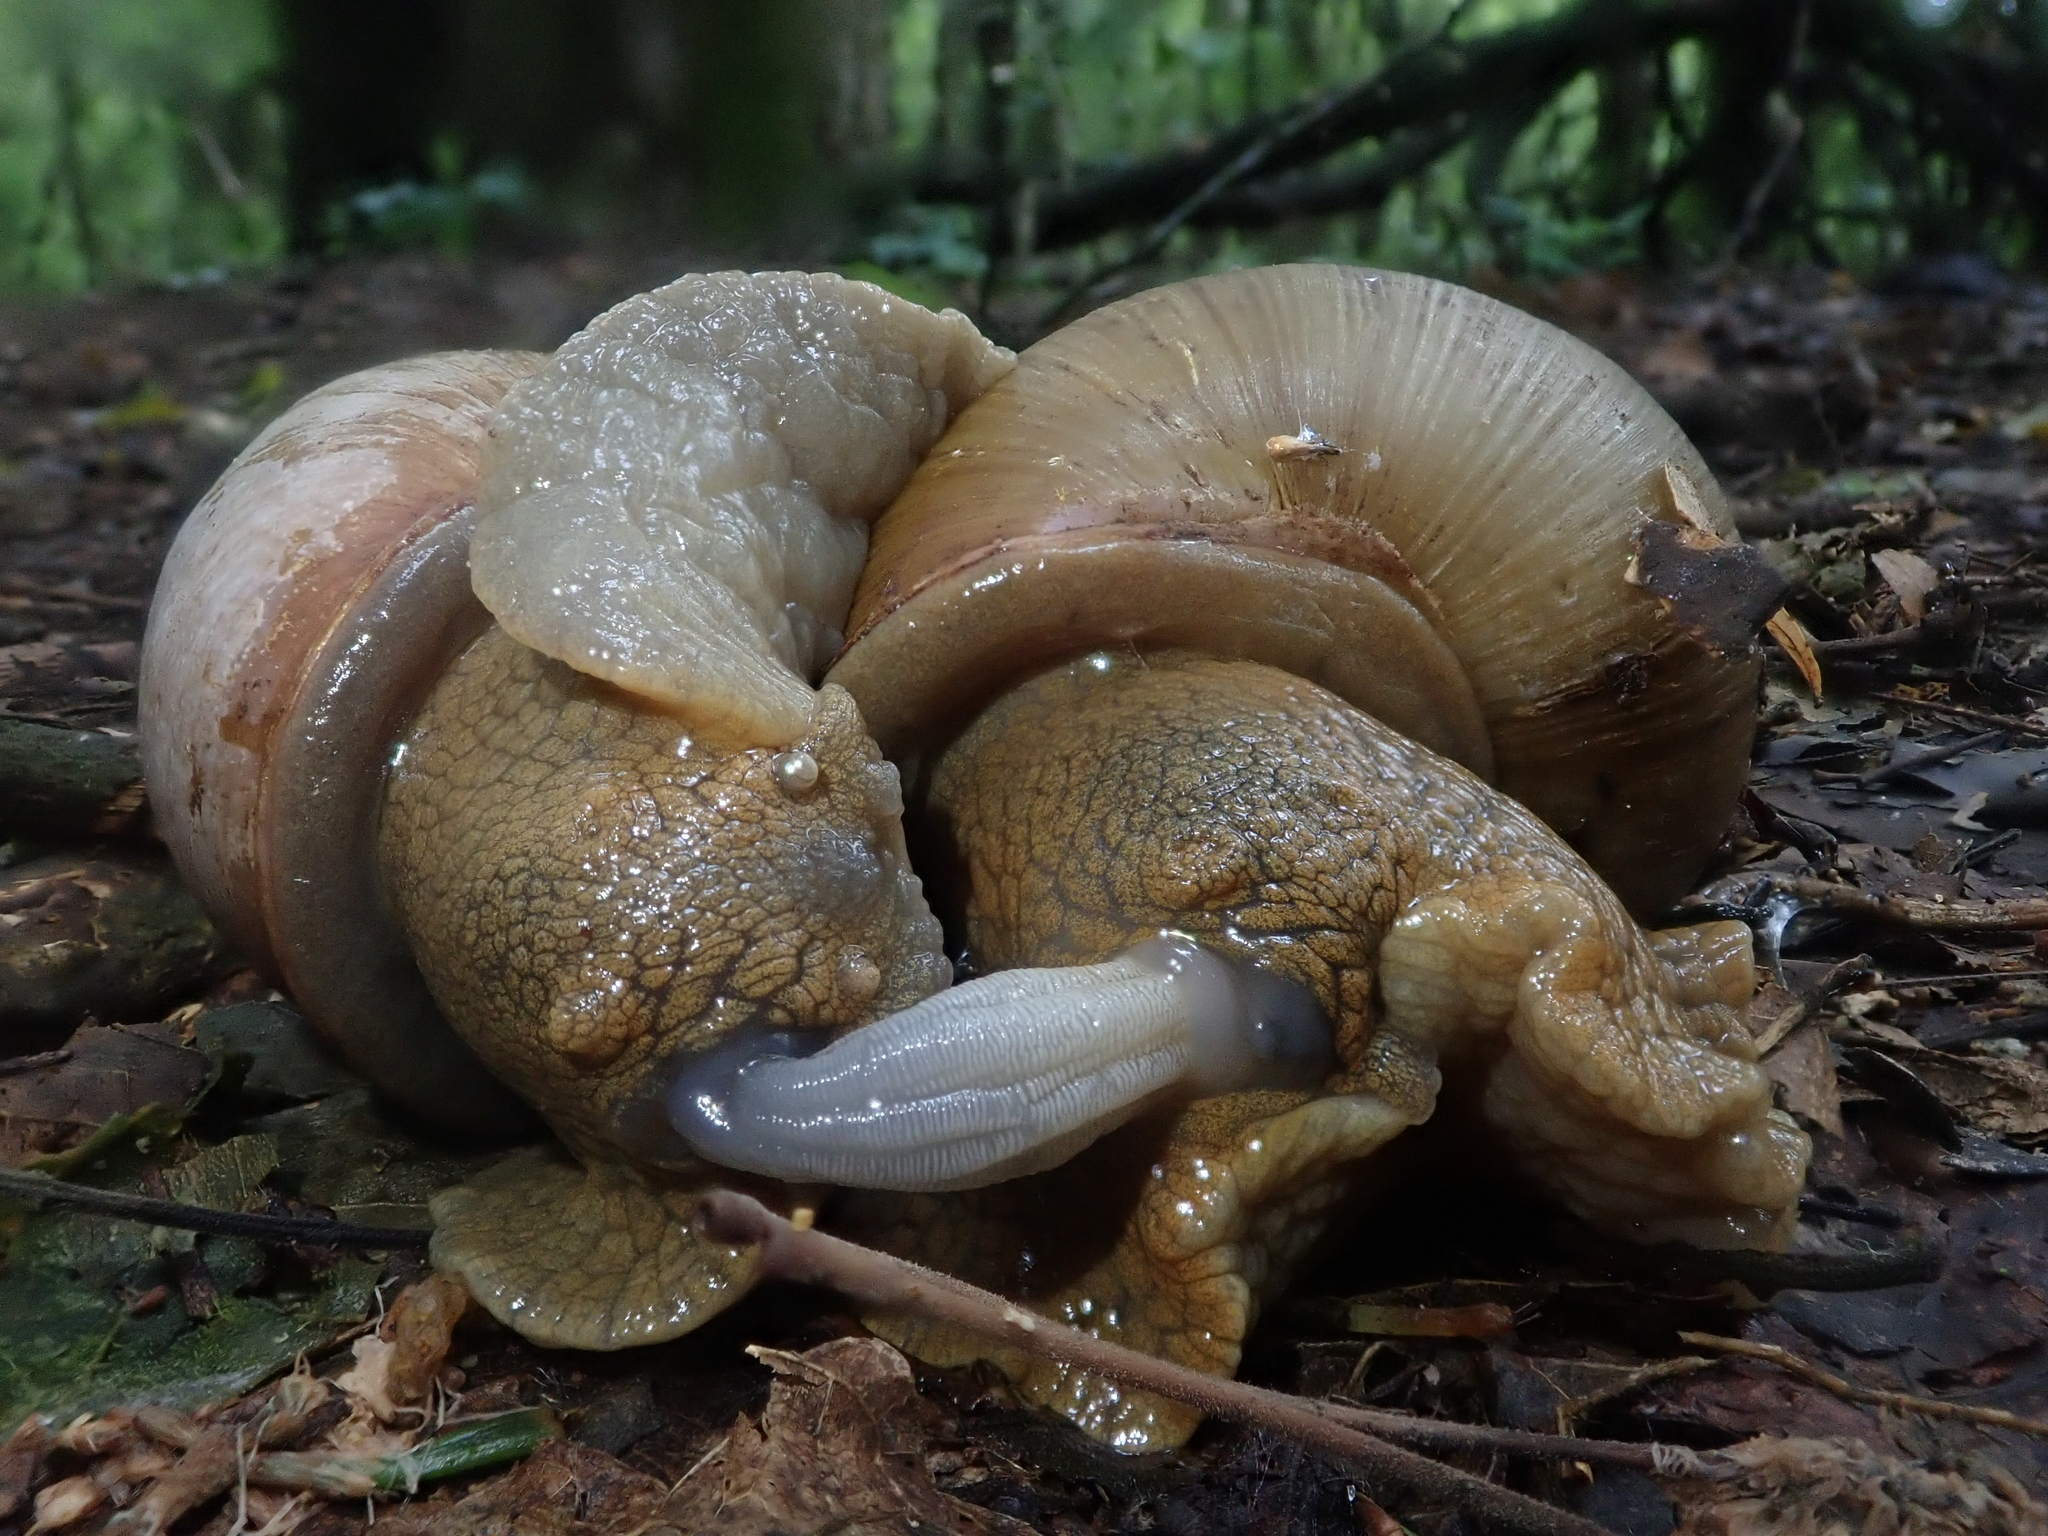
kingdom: Animalia
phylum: Mollusca
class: Gastropoda
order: Stylommatophora
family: Strophocheilidae
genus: Megalobulimus
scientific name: Megalobulimus
